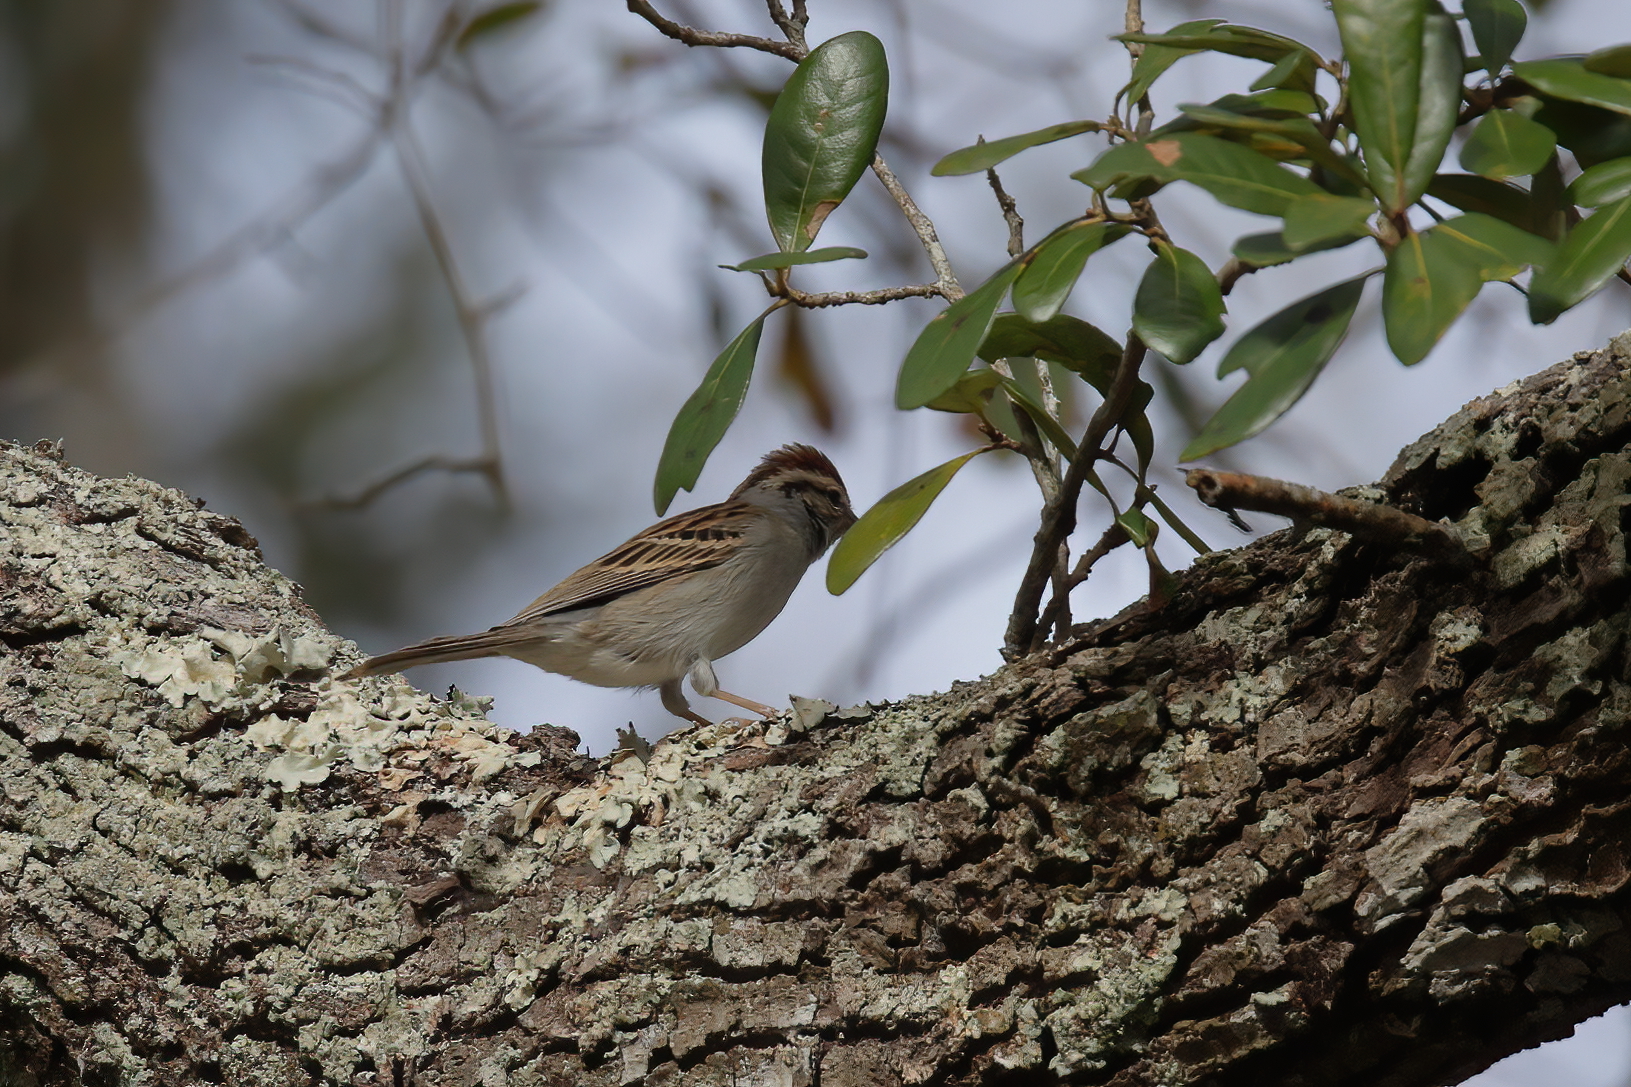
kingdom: Animalia
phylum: Chordata
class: Aves
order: Passeriformes
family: Passerellidae
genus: Spizella
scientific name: Spizella passerina
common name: Chipping sparrow
